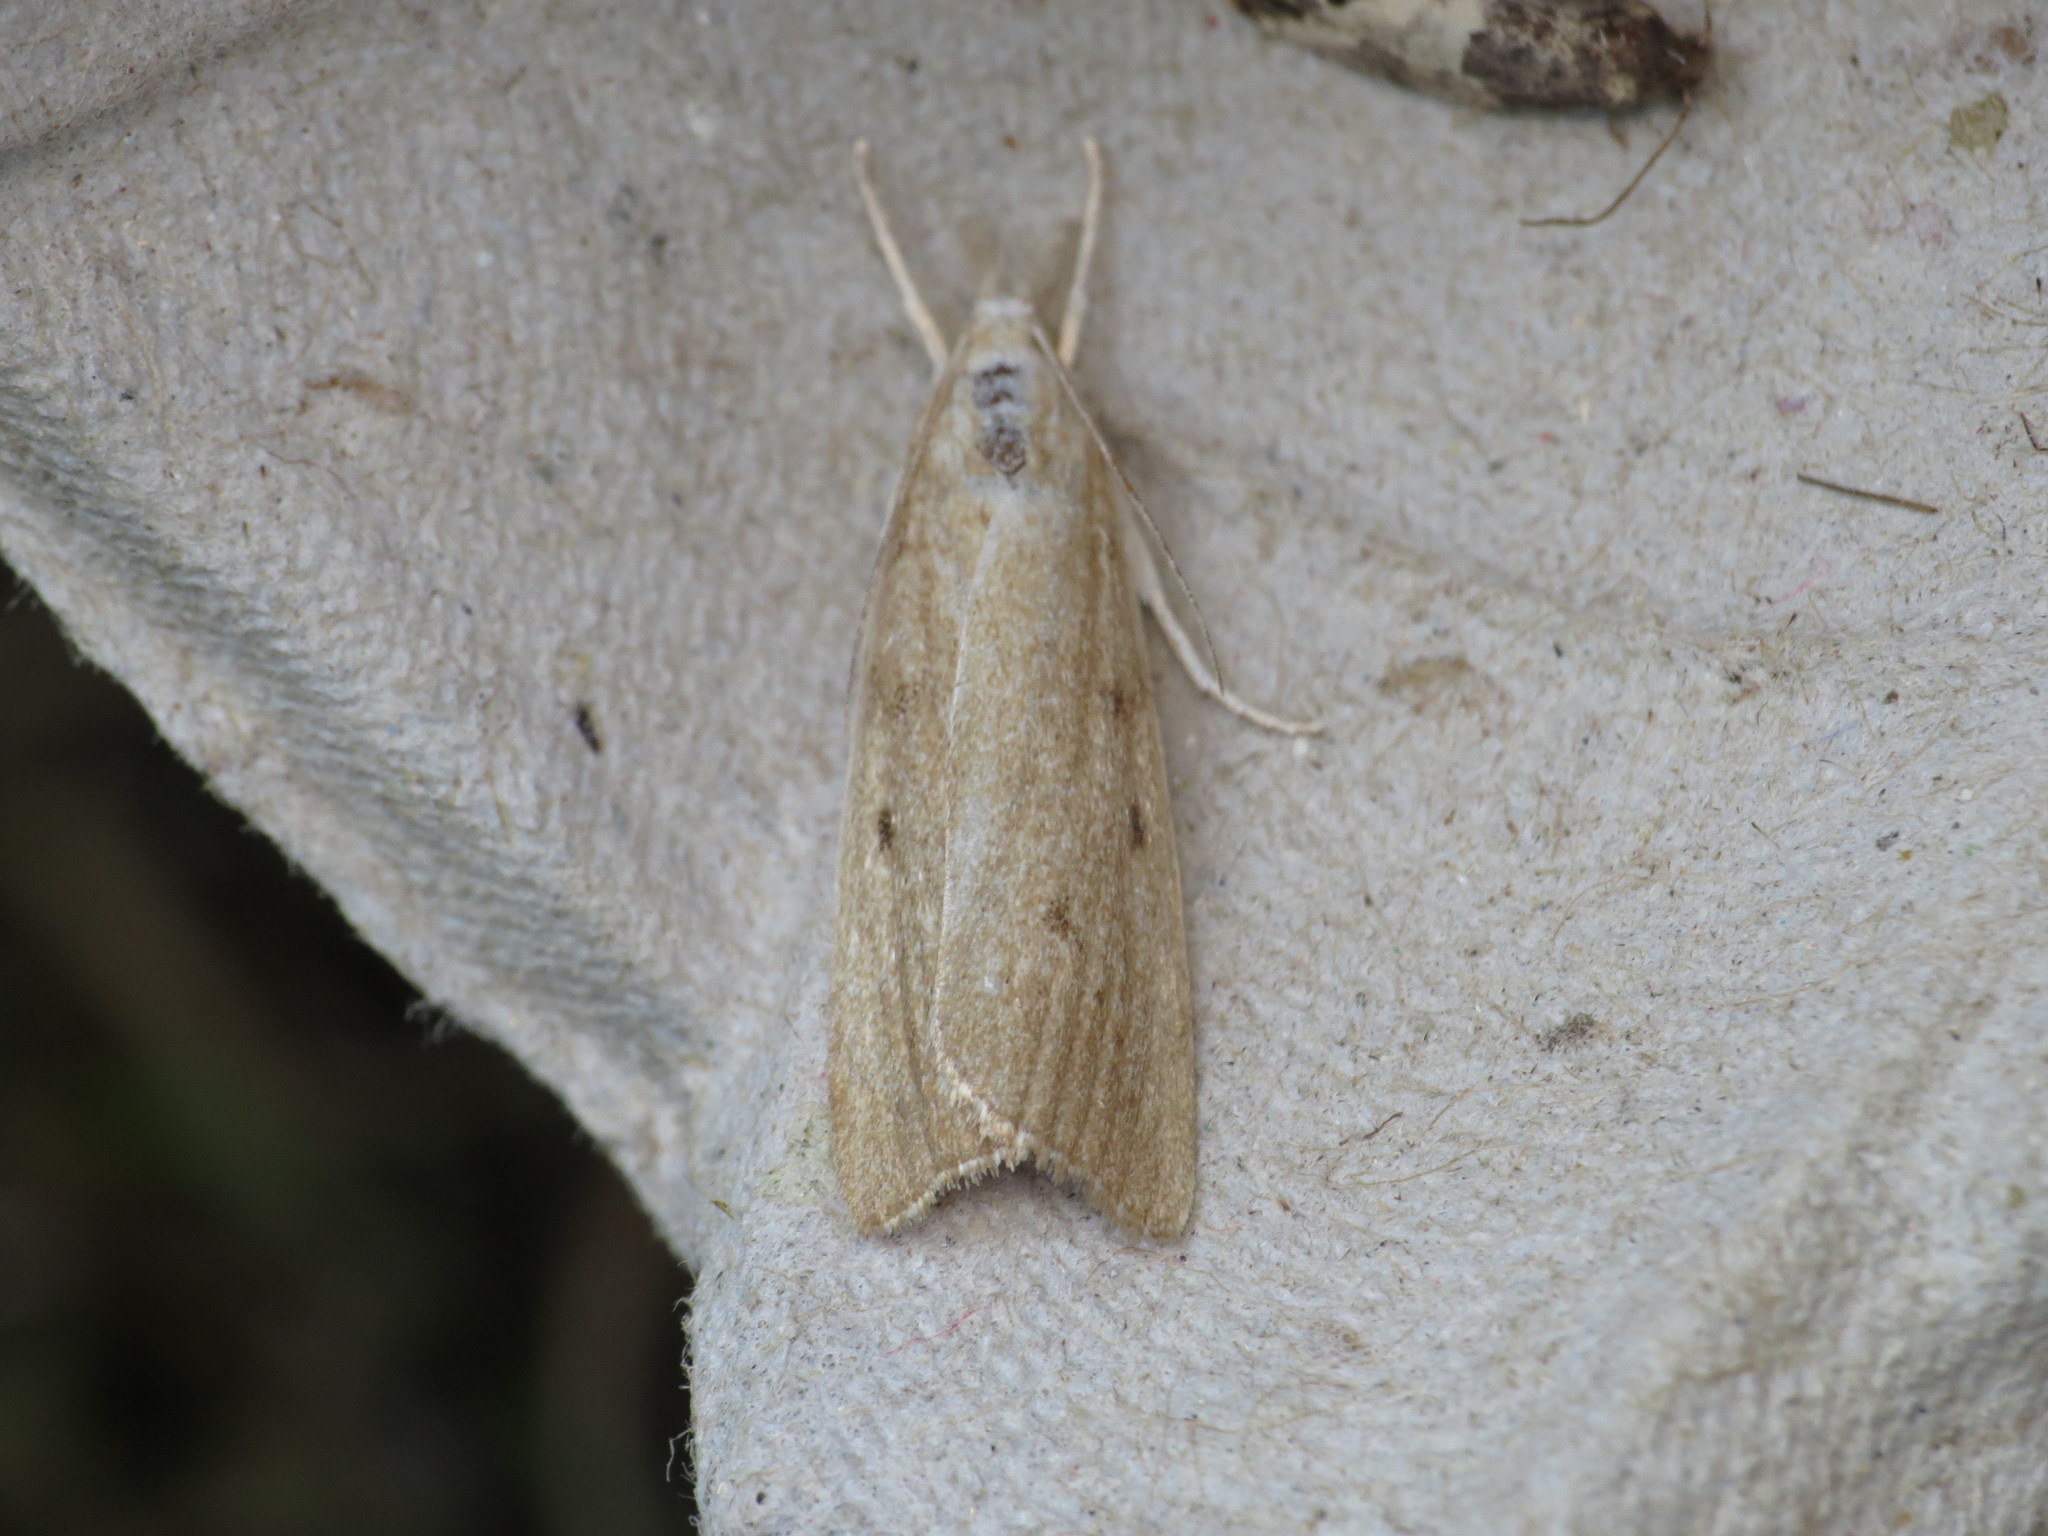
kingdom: Animalia
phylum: Arthropoda
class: Insecta
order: Lepidoptera
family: Crambidae
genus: Calamotropha
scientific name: Calamotropha paludella
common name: Bulrush veneer
